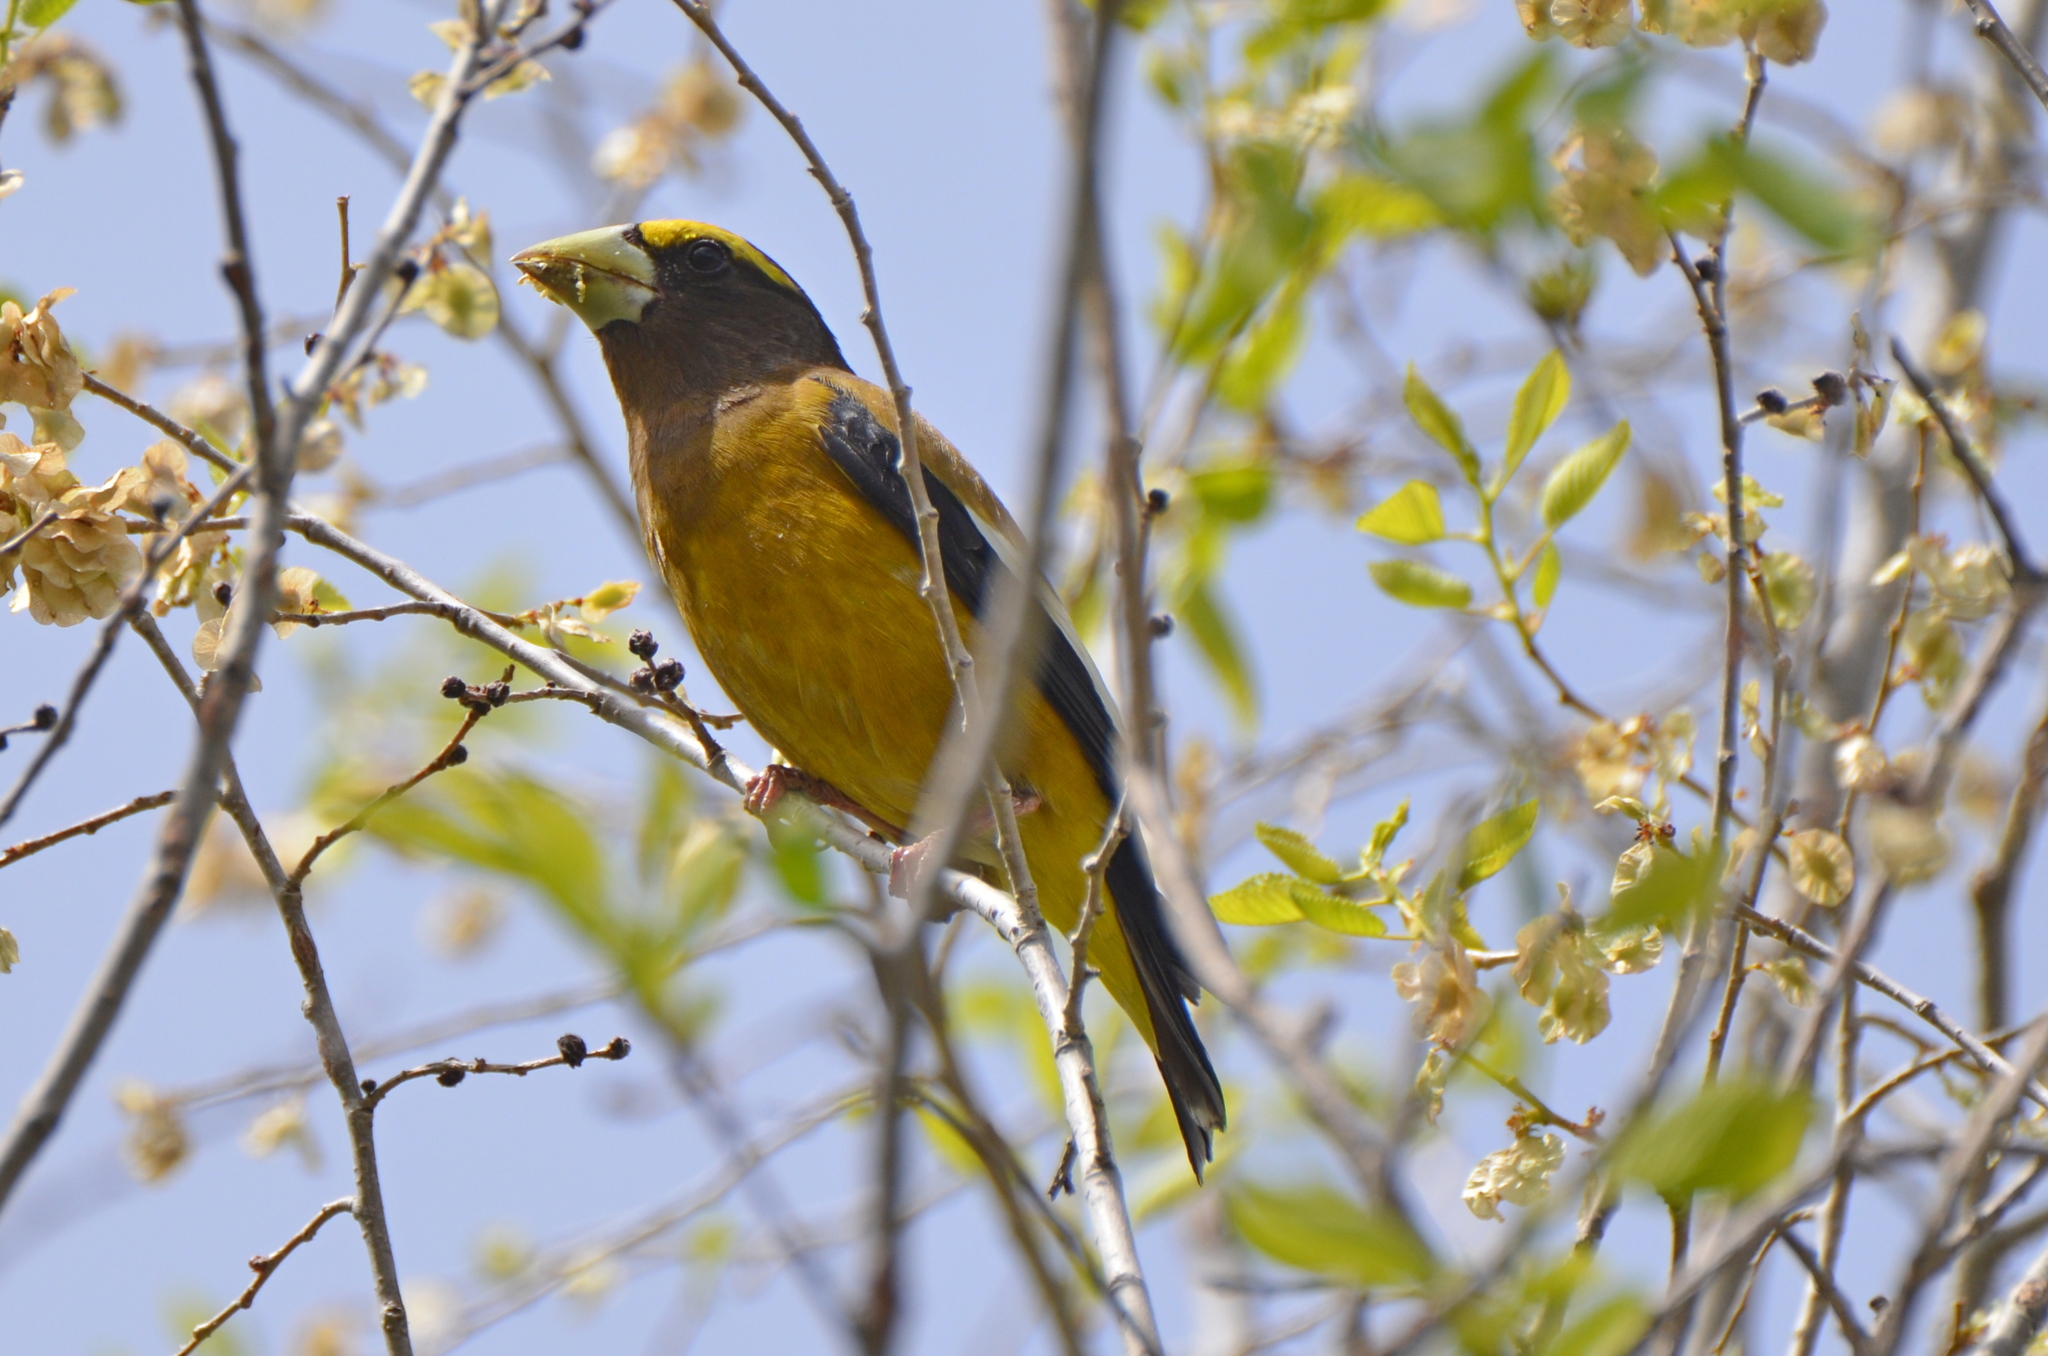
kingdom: Animalia
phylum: Chordata
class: Aves
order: Passeriformes
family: Fringillidae
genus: Hesperiphona
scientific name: Hesperiphona vespertina
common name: Evening grosbeak
